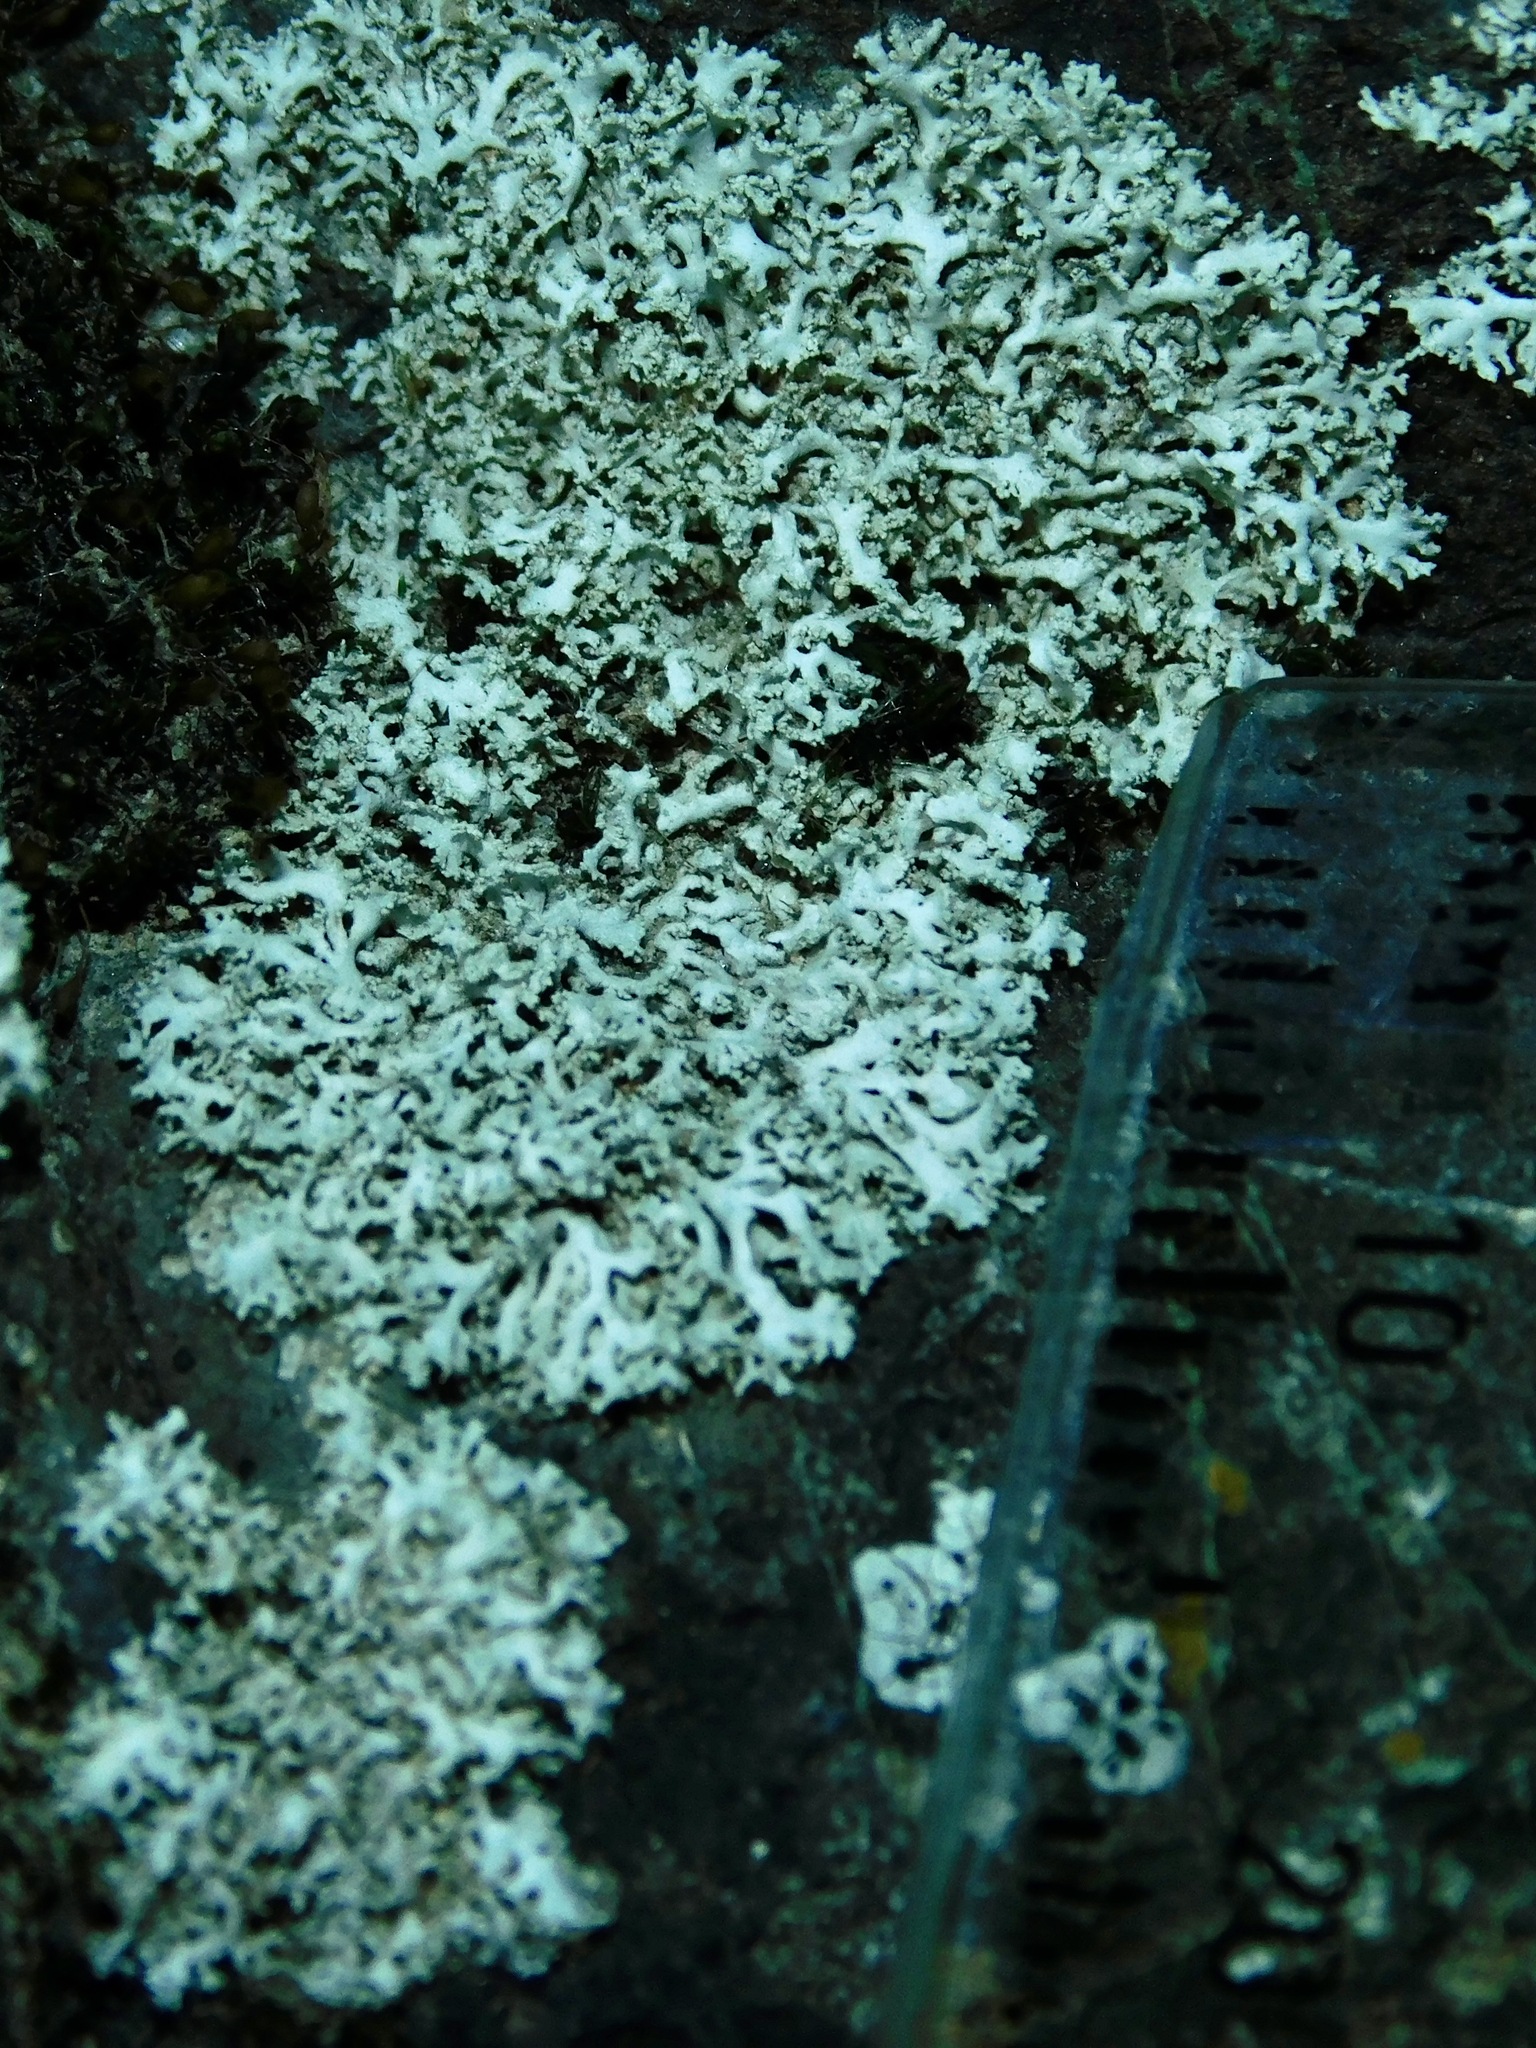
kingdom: Fungi
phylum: Ascomycota
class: Lecanoromycetes
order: Caliciales
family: Physciaceae
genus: Physcia
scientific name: Physcia subtilis
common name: Slender rosette lichen
